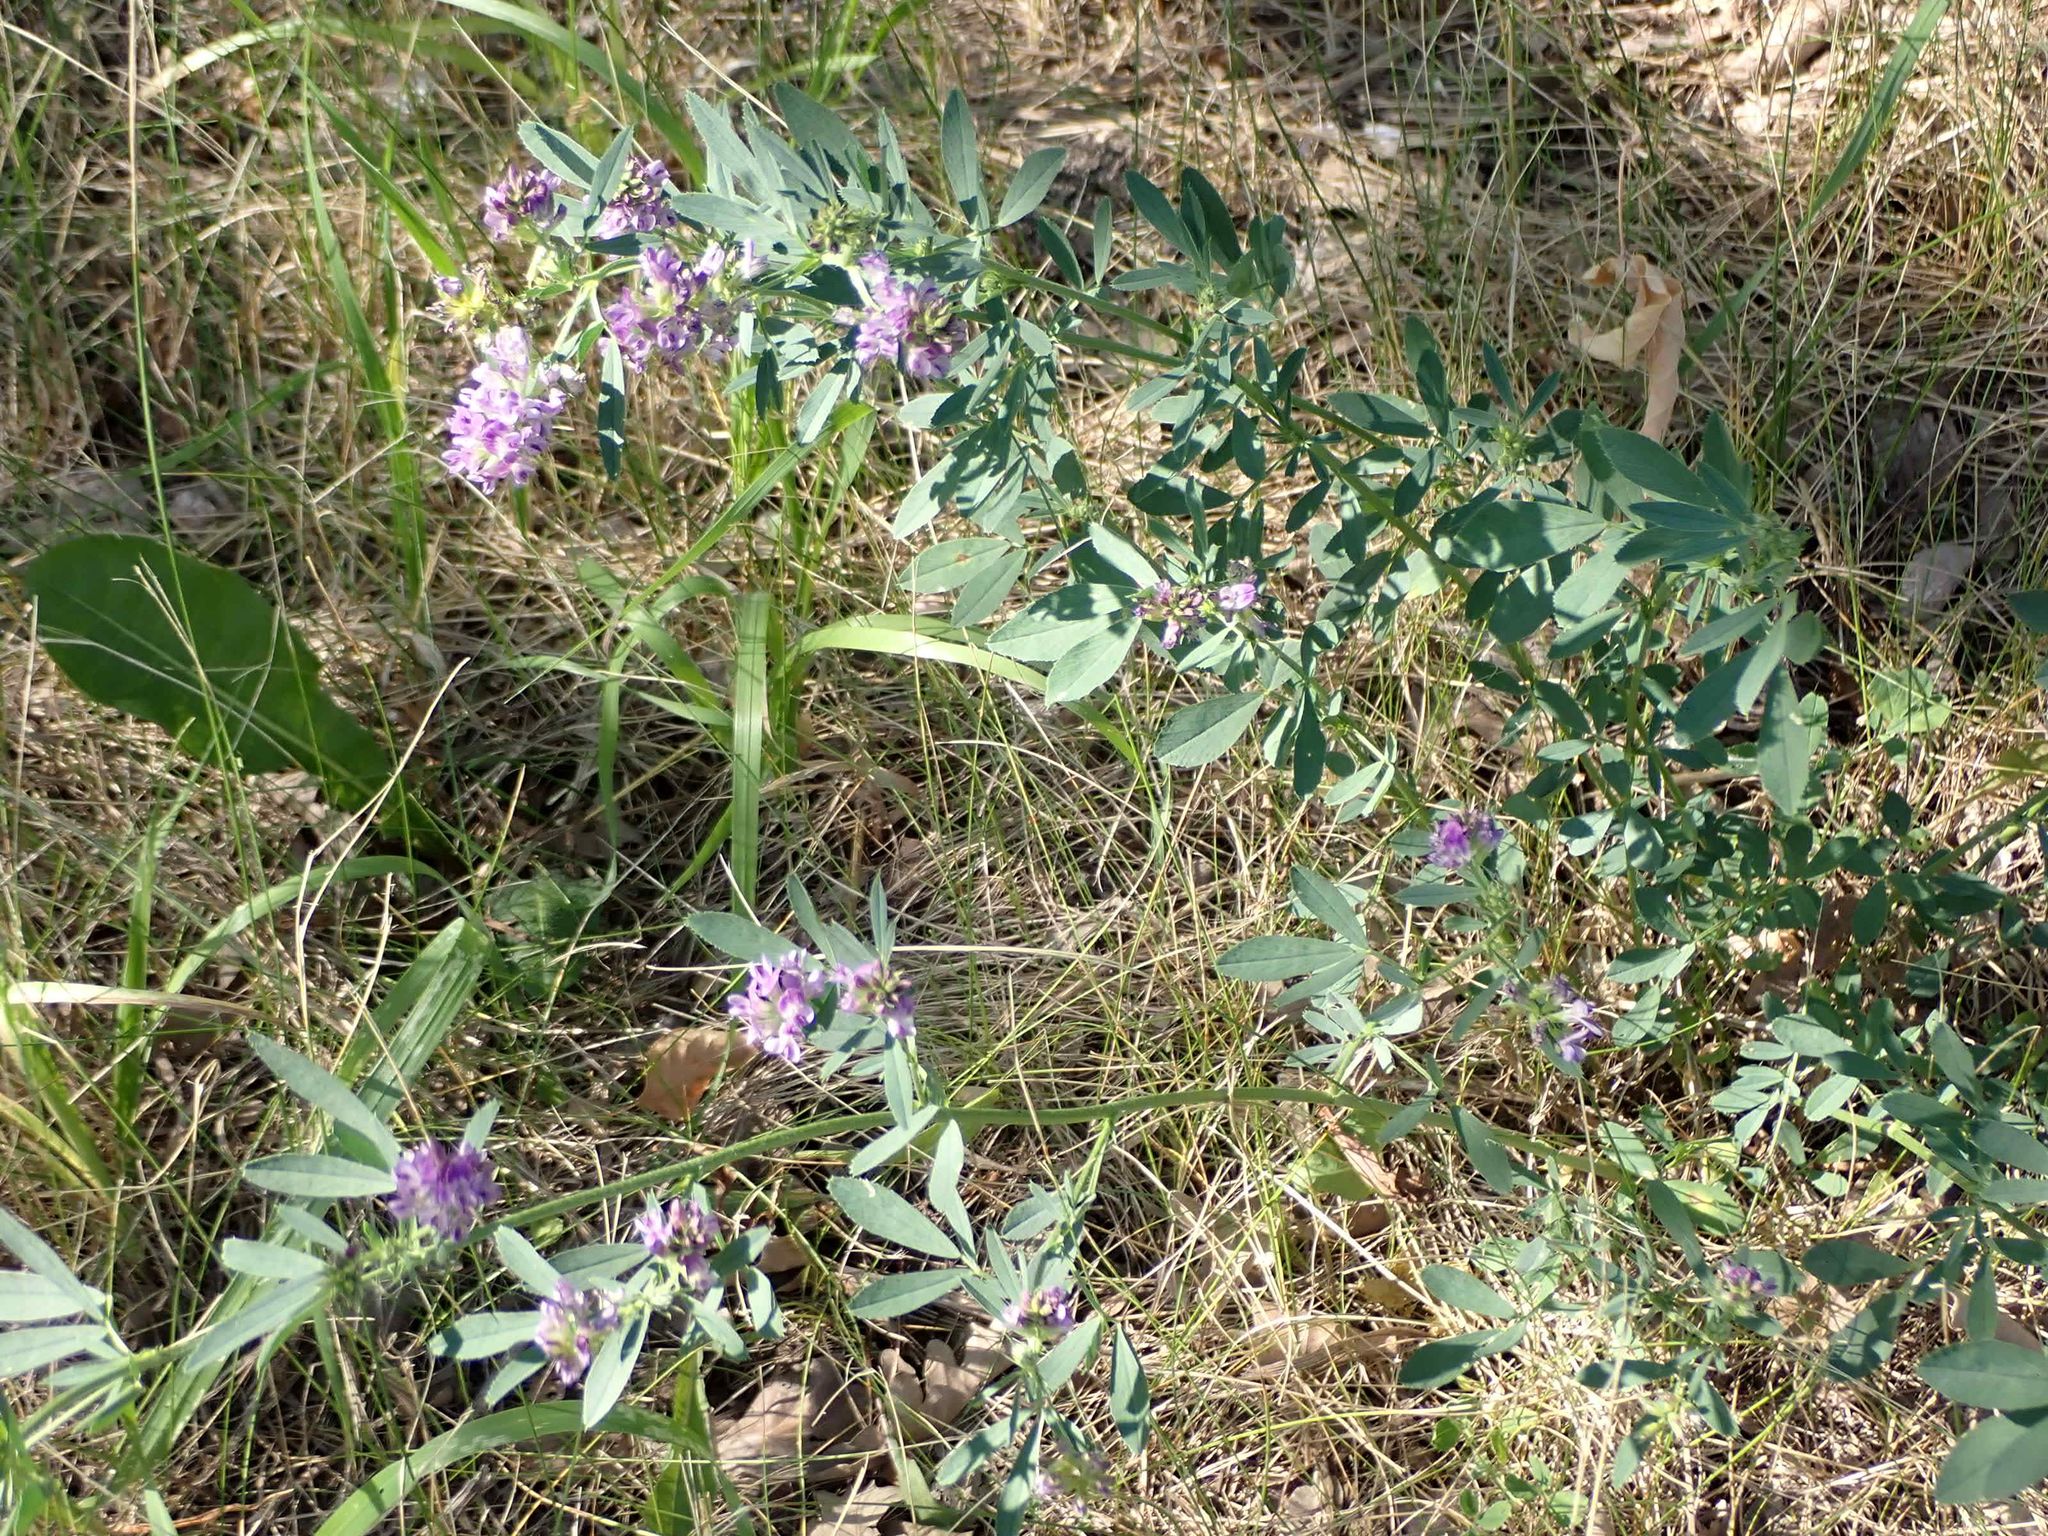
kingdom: Plantae
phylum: Tracheophyta
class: Magnoliopsida
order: Fabales
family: Fabaceae
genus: Medicago
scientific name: Medicago sativa
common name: Alfalfa
